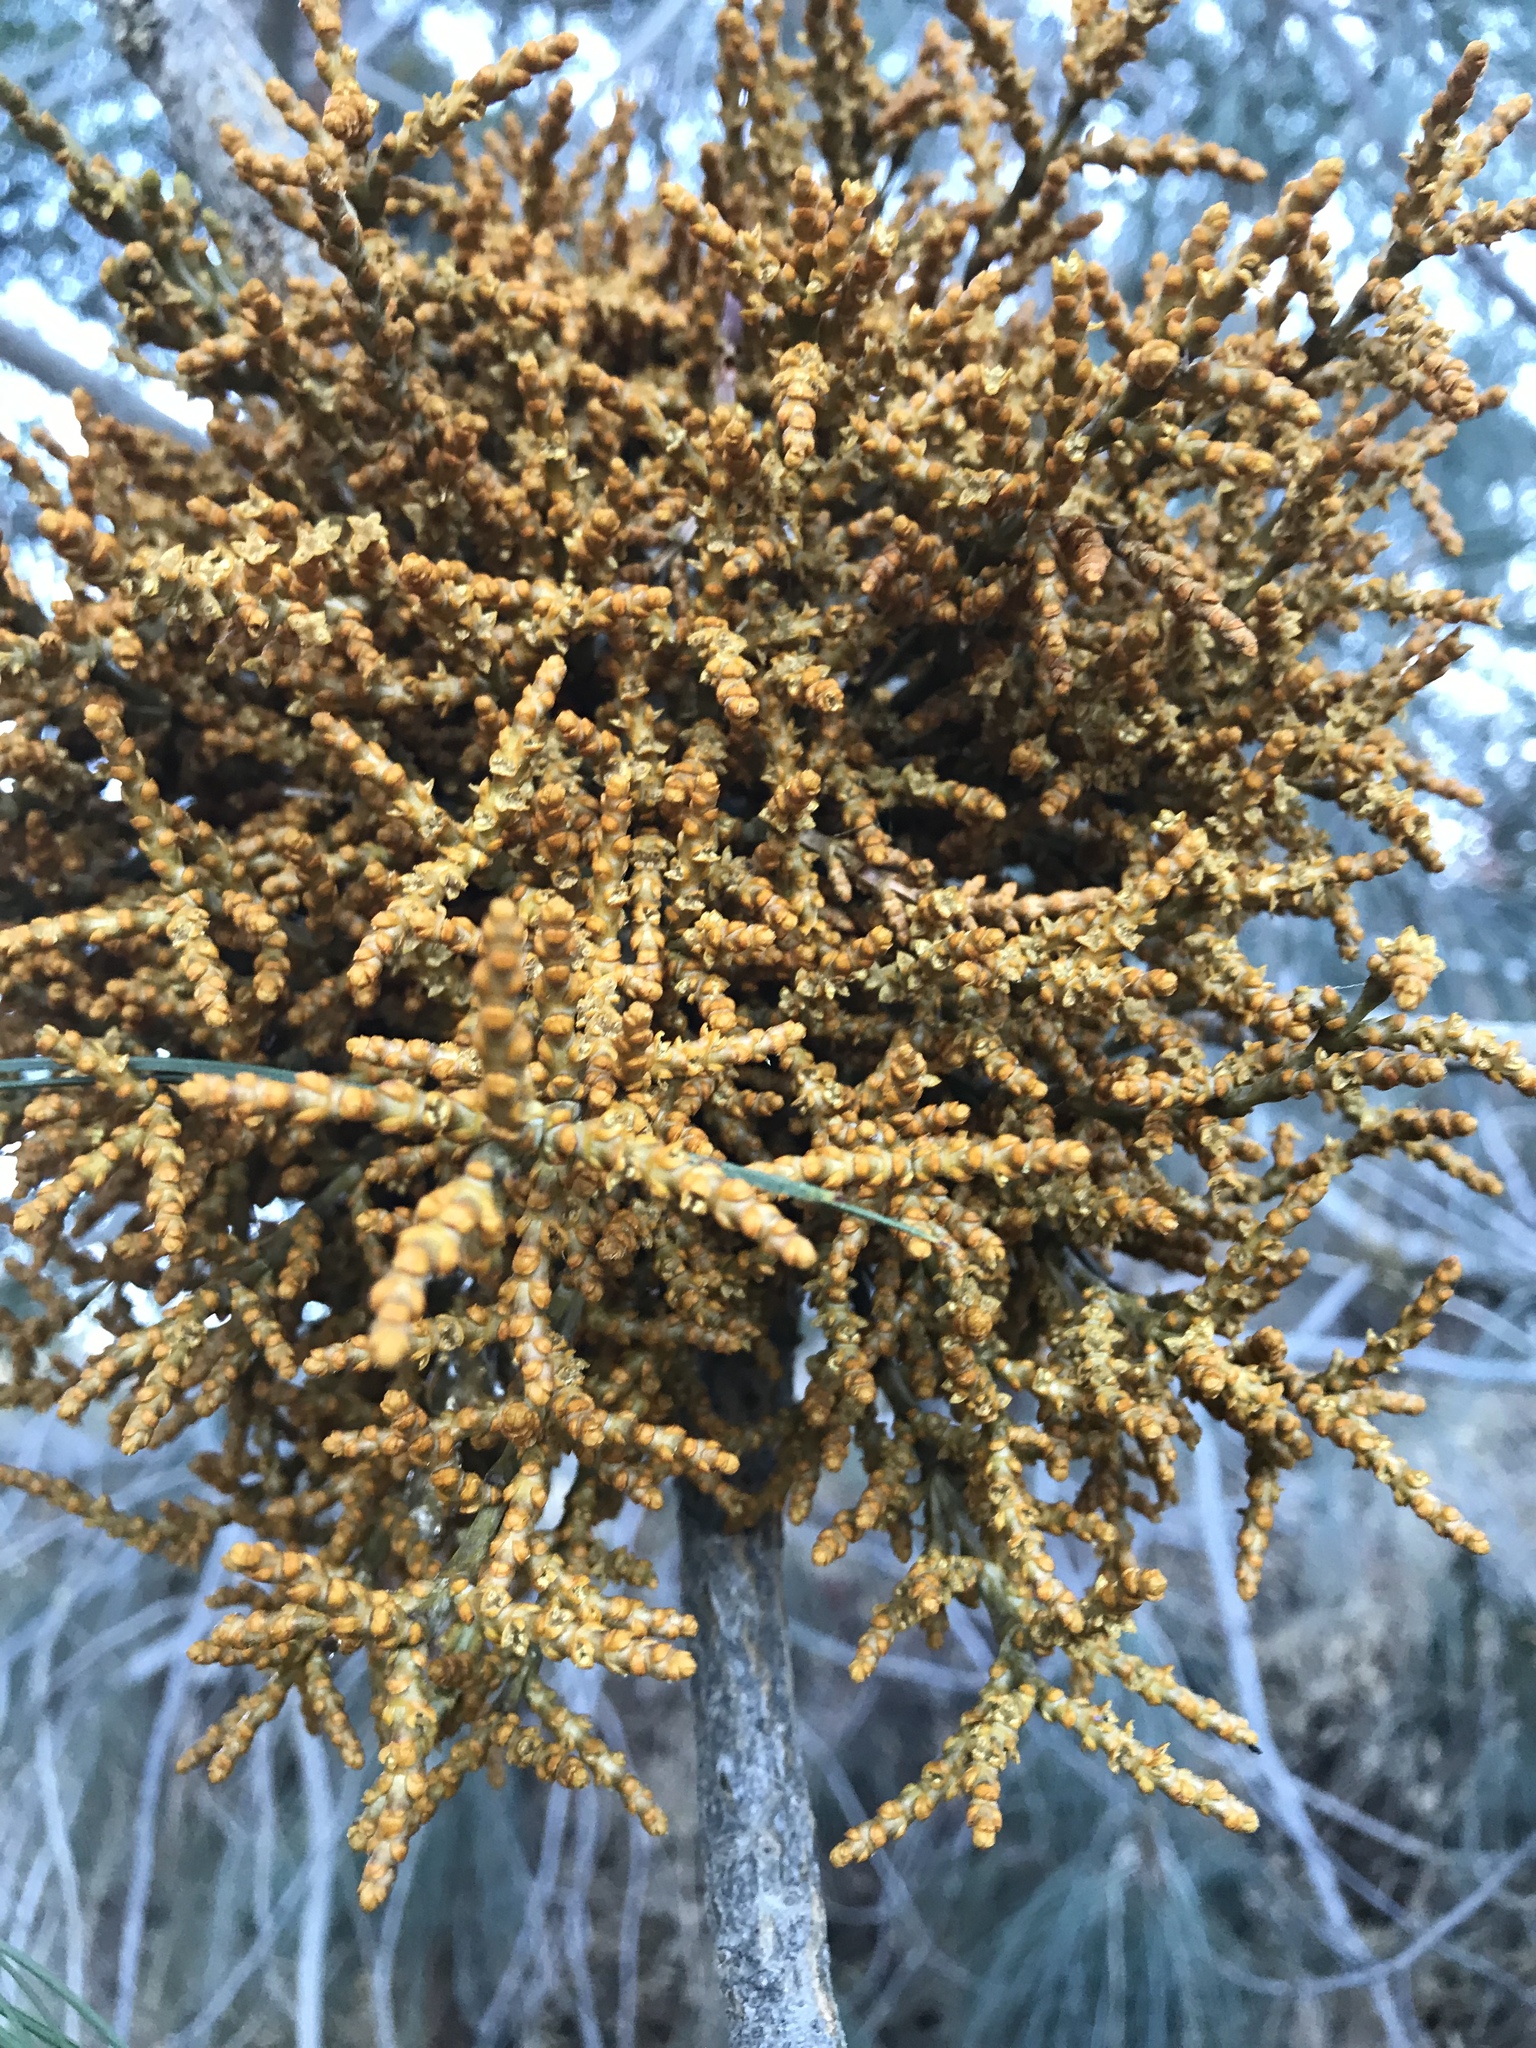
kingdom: Plantae
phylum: Tracheophyta
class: Magnoliopsida
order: Santalales
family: Viscaceae
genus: Arceuthobium
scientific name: Arceuthobium campylopodum
